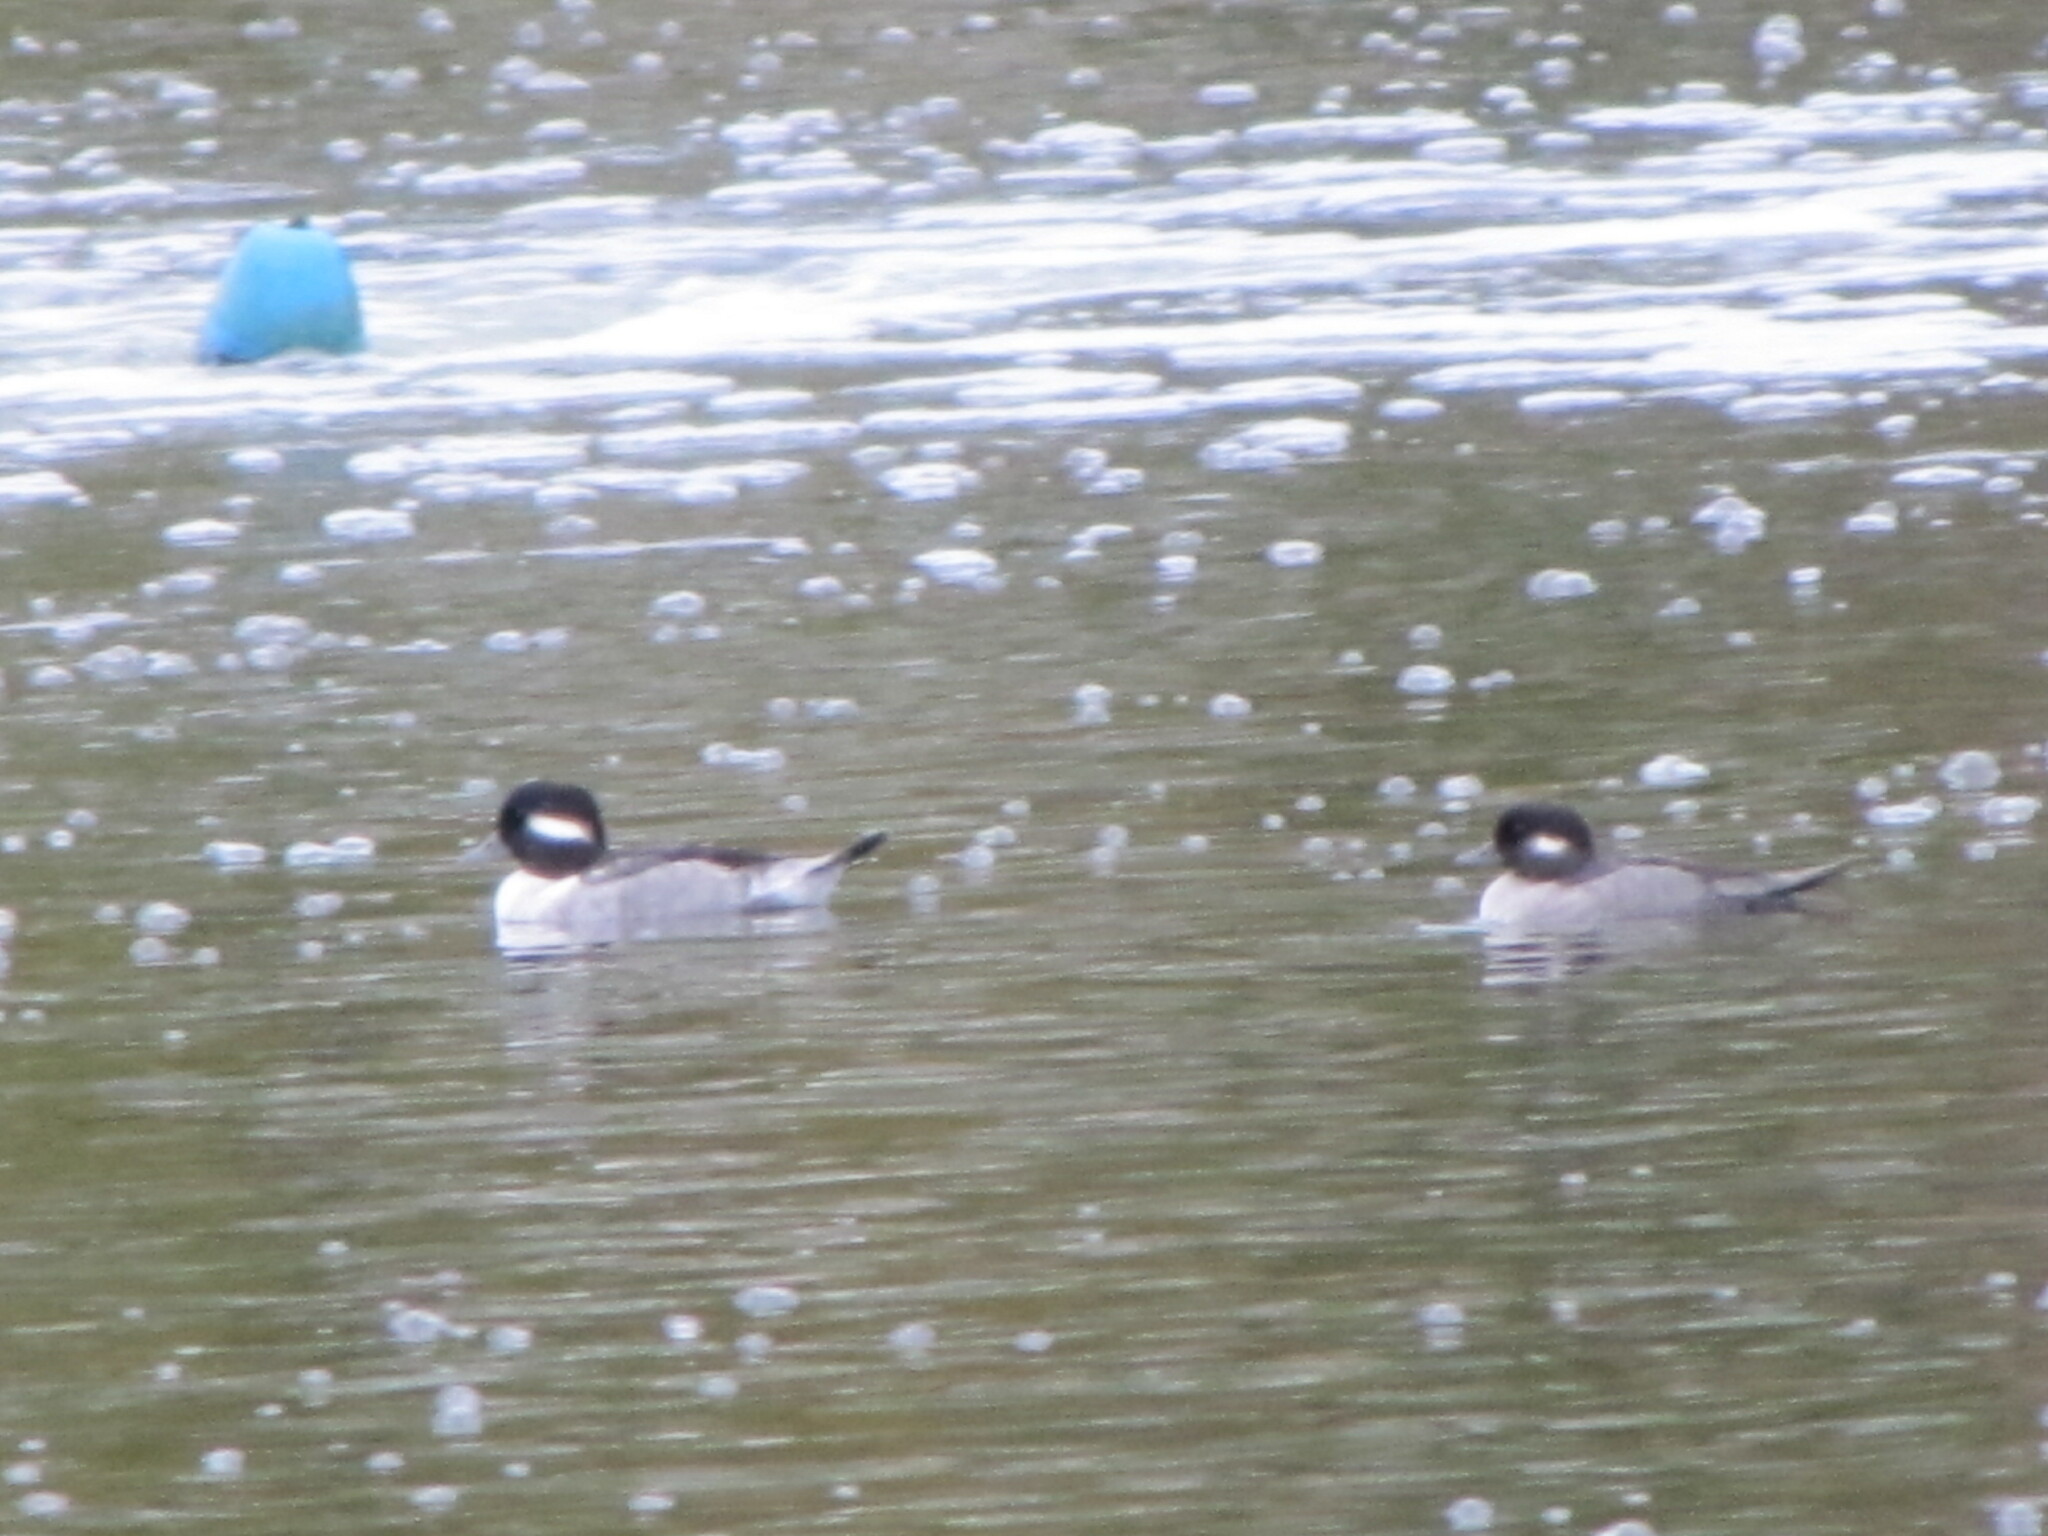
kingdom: Animalia
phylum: Chordata
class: Aves
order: Anseriformes
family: Anatidae
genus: Bucephala
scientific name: Bucephala albeola
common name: Bufflehead
